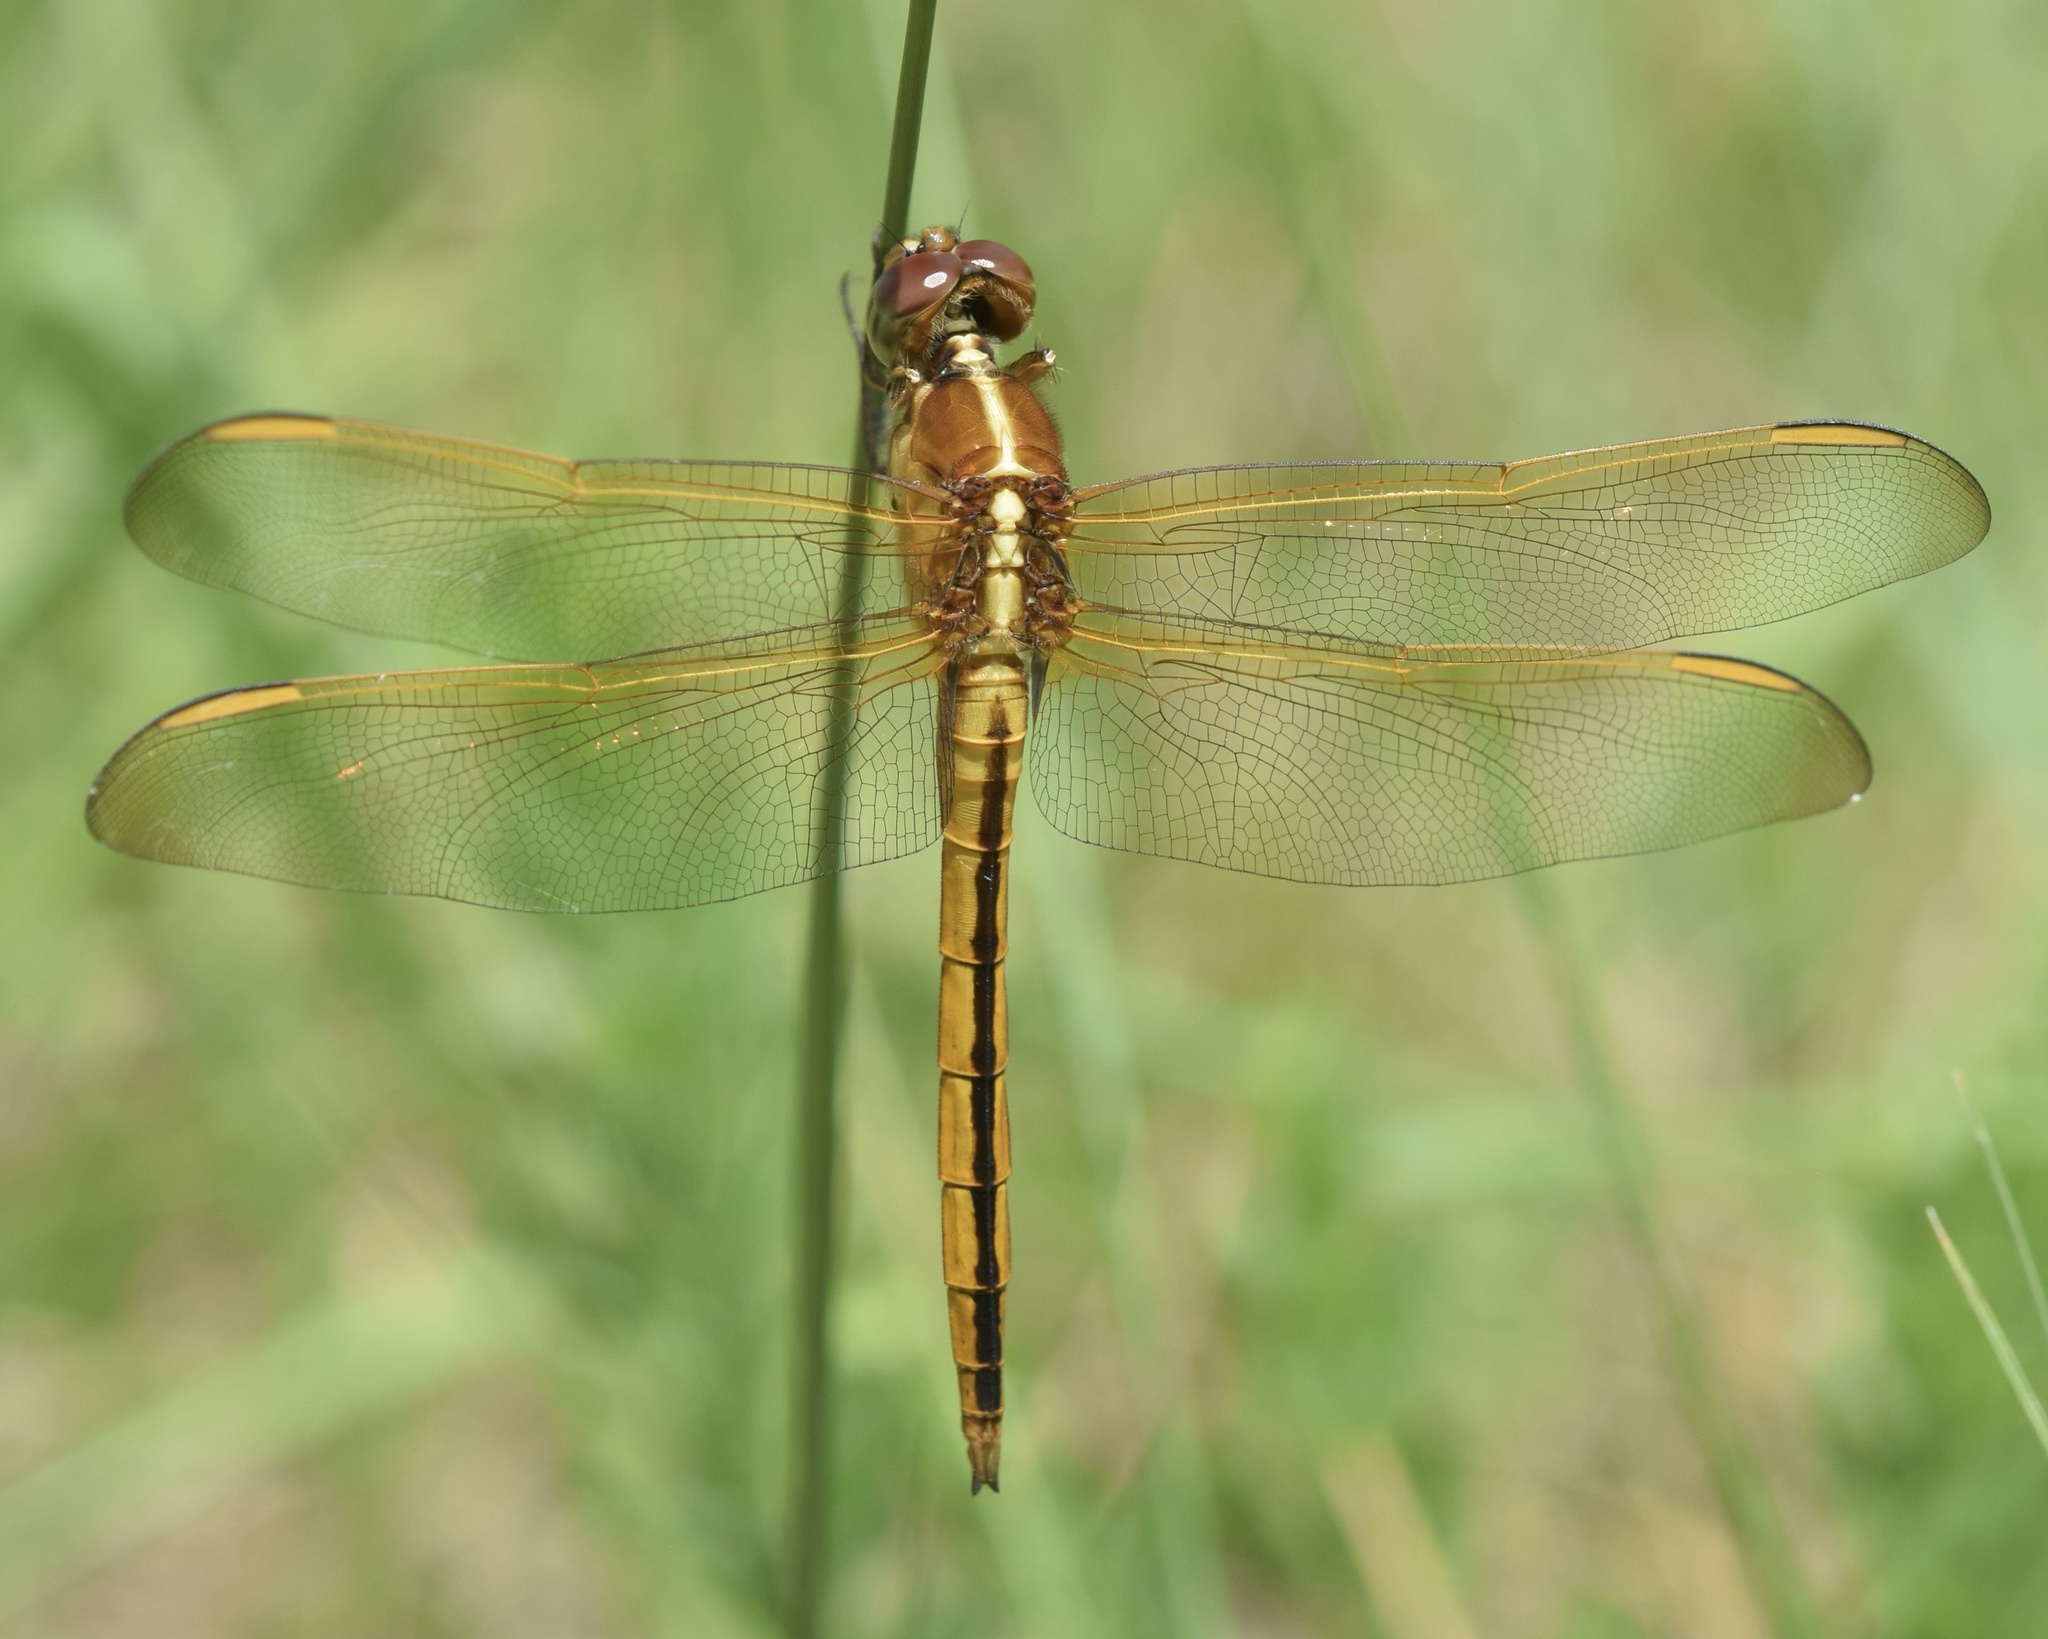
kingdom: Animalia
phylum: Arthropoda
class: Insecta
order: Odonata
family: Libellulidae
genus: Libellula
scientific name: Libellula needhami
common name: Needham's skimmer
